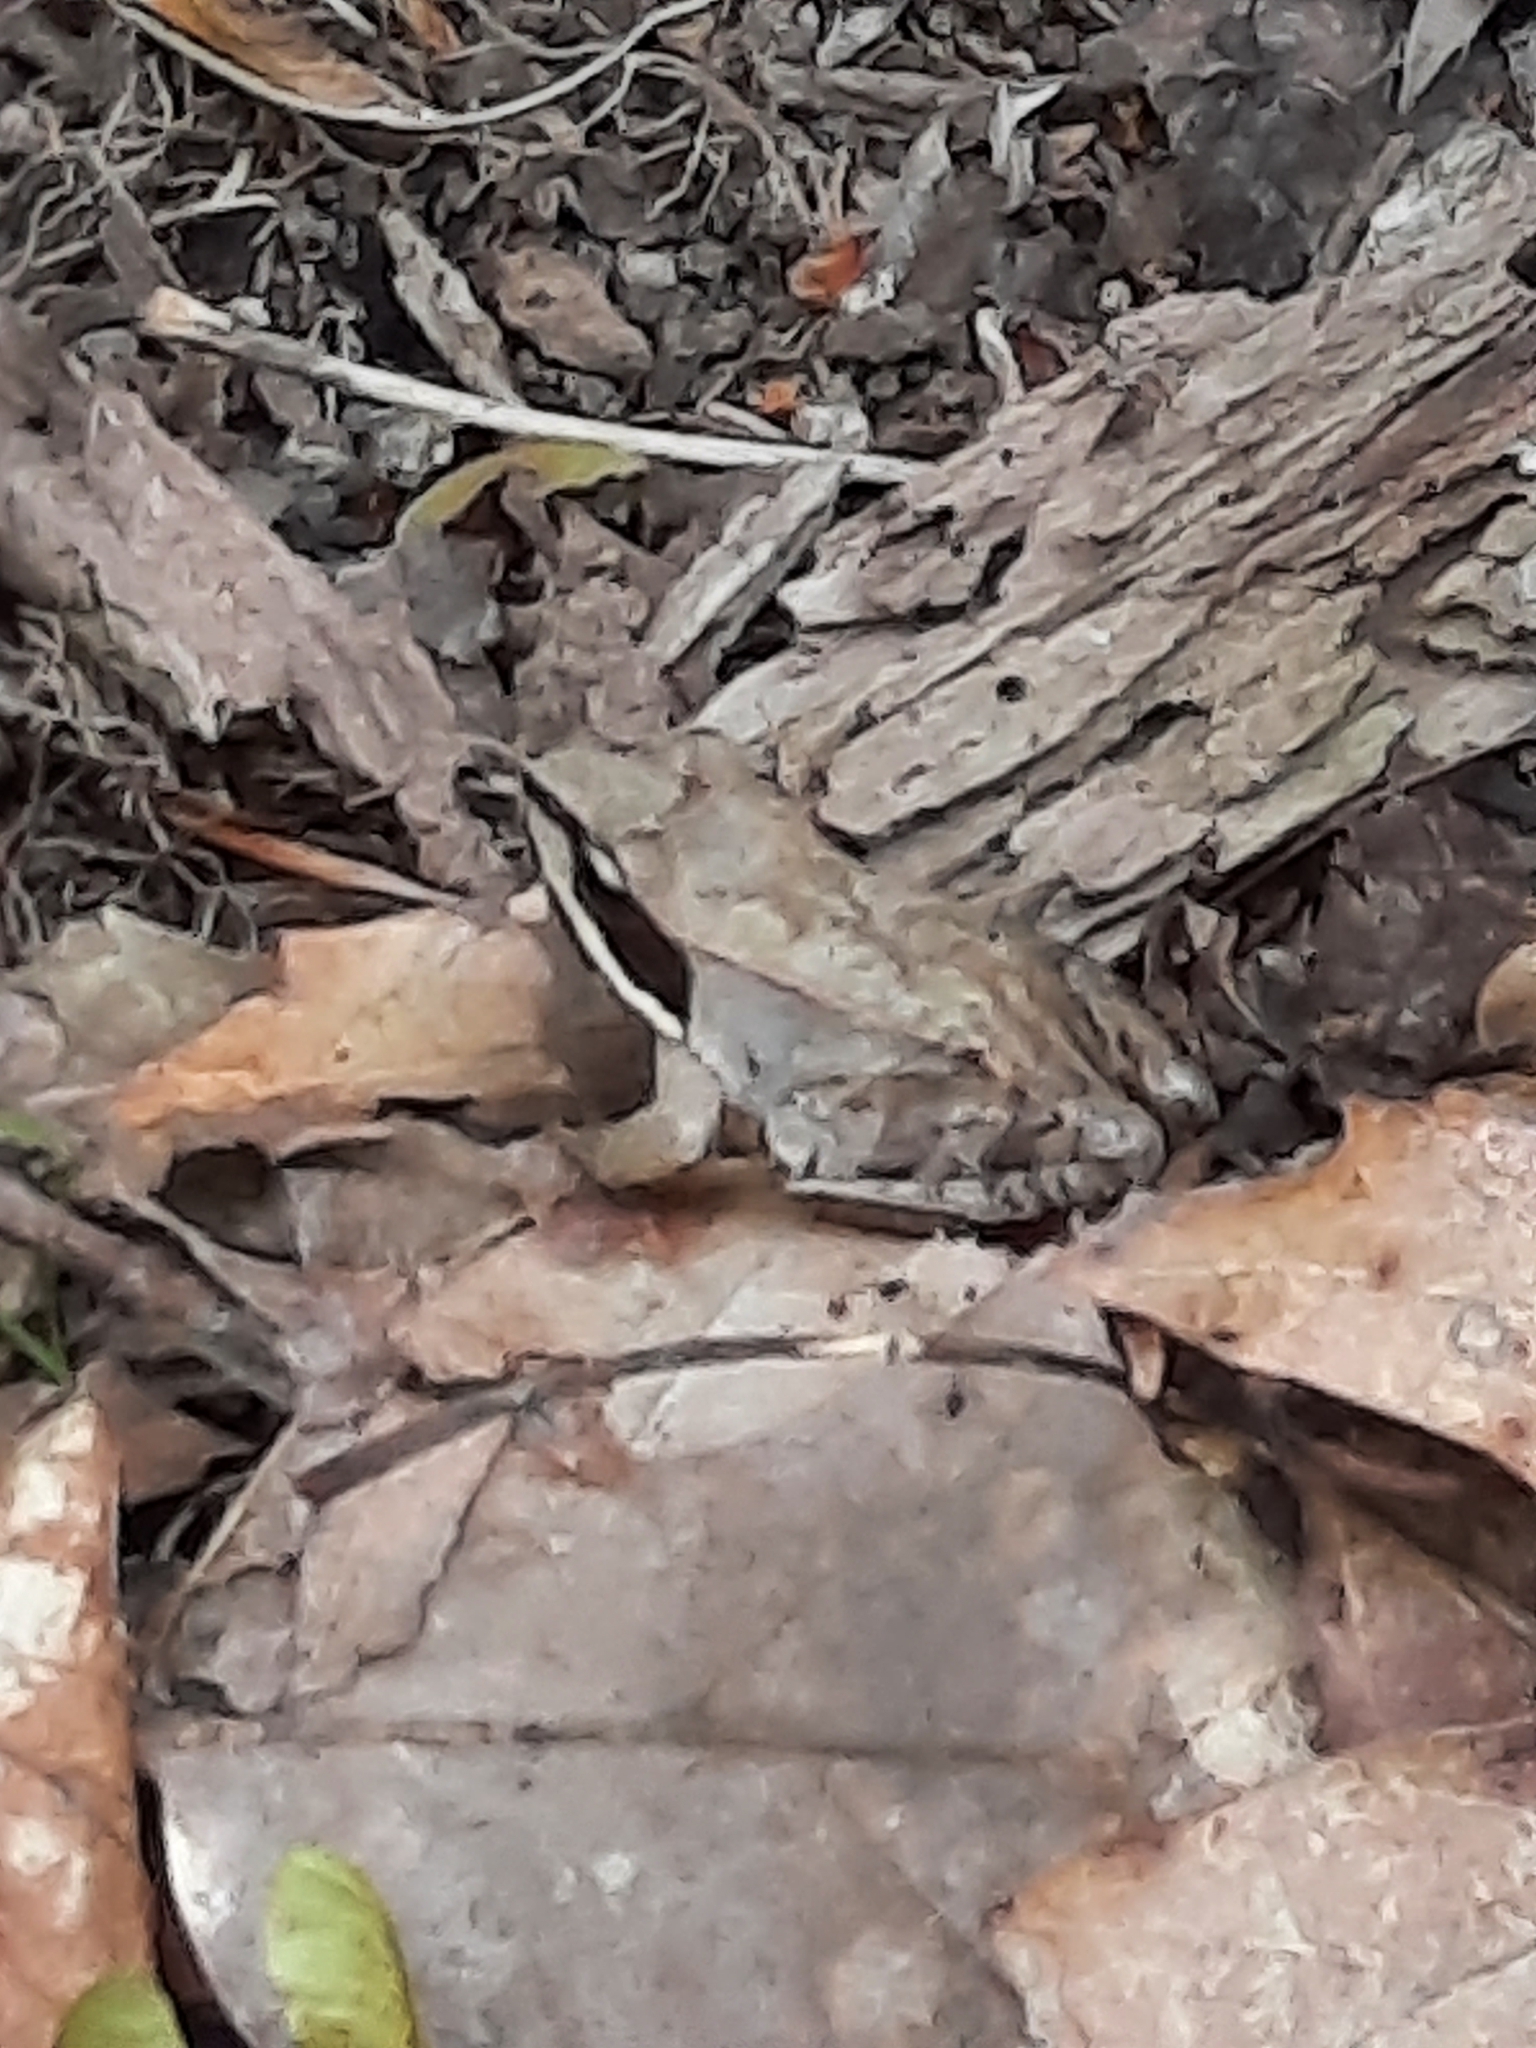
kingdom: Animalia
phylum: Chordata
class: Amphibia
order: Anura
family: Ranidae
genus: Lithobates
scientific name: Lithobates sylvaticus
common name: Wood frog
